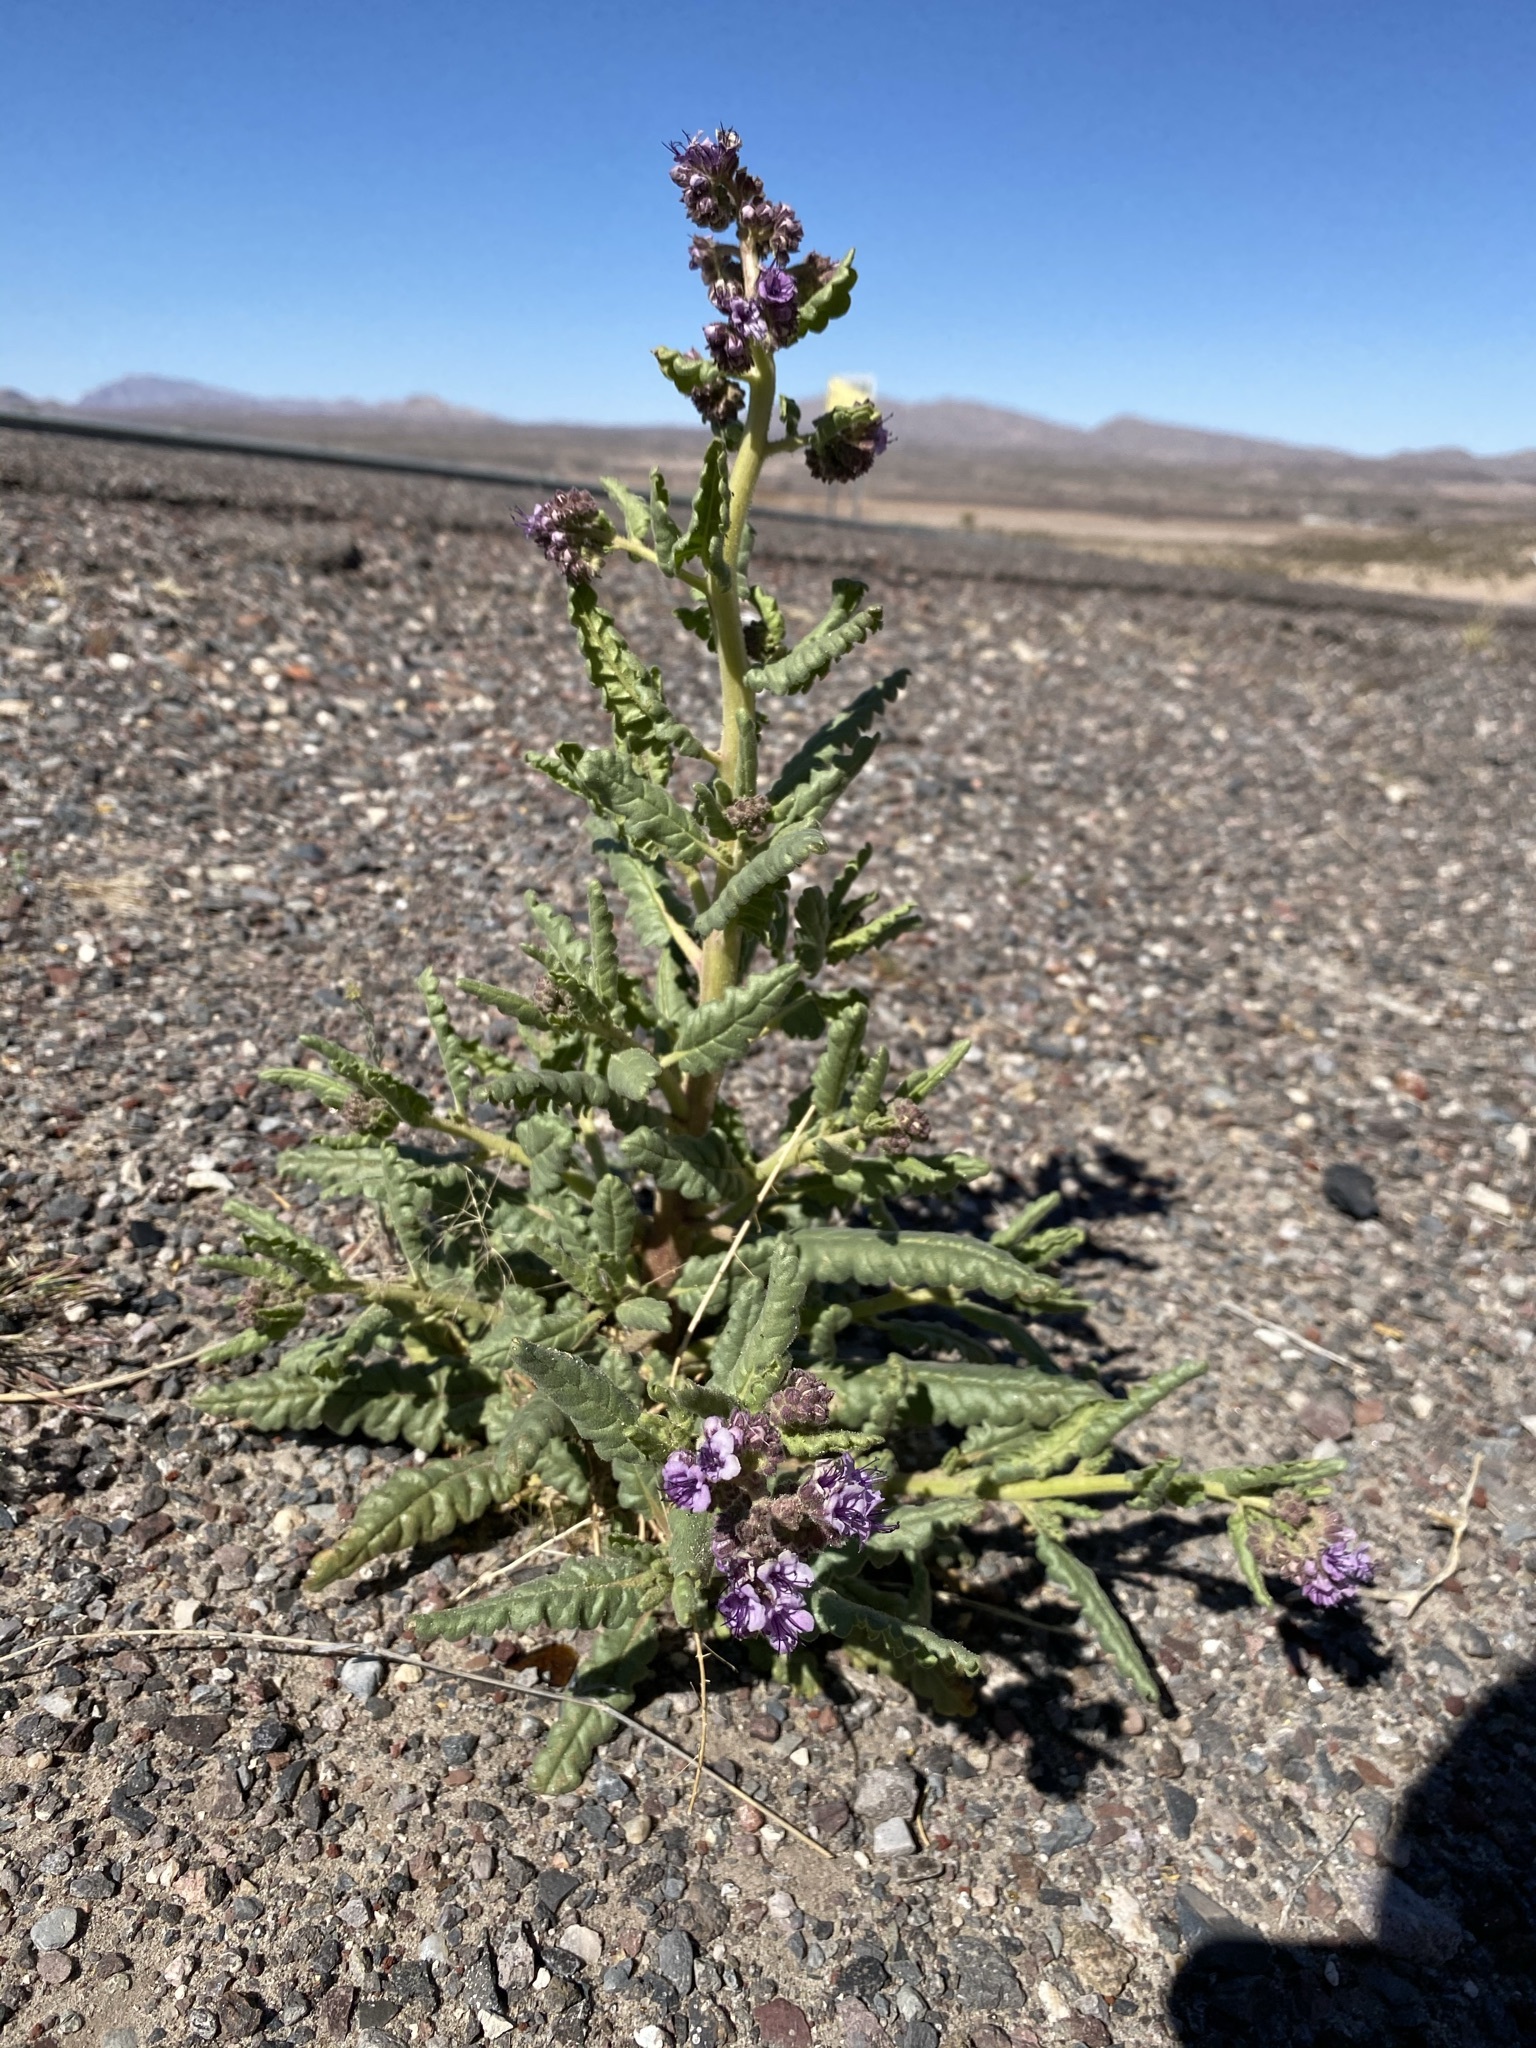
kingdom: Plantae
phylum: Tracheophyta
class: Magnoliopsida
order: Boraginales
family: Hydrophyllaceae
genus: Phacelia
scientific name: Phacelia integrifolia
